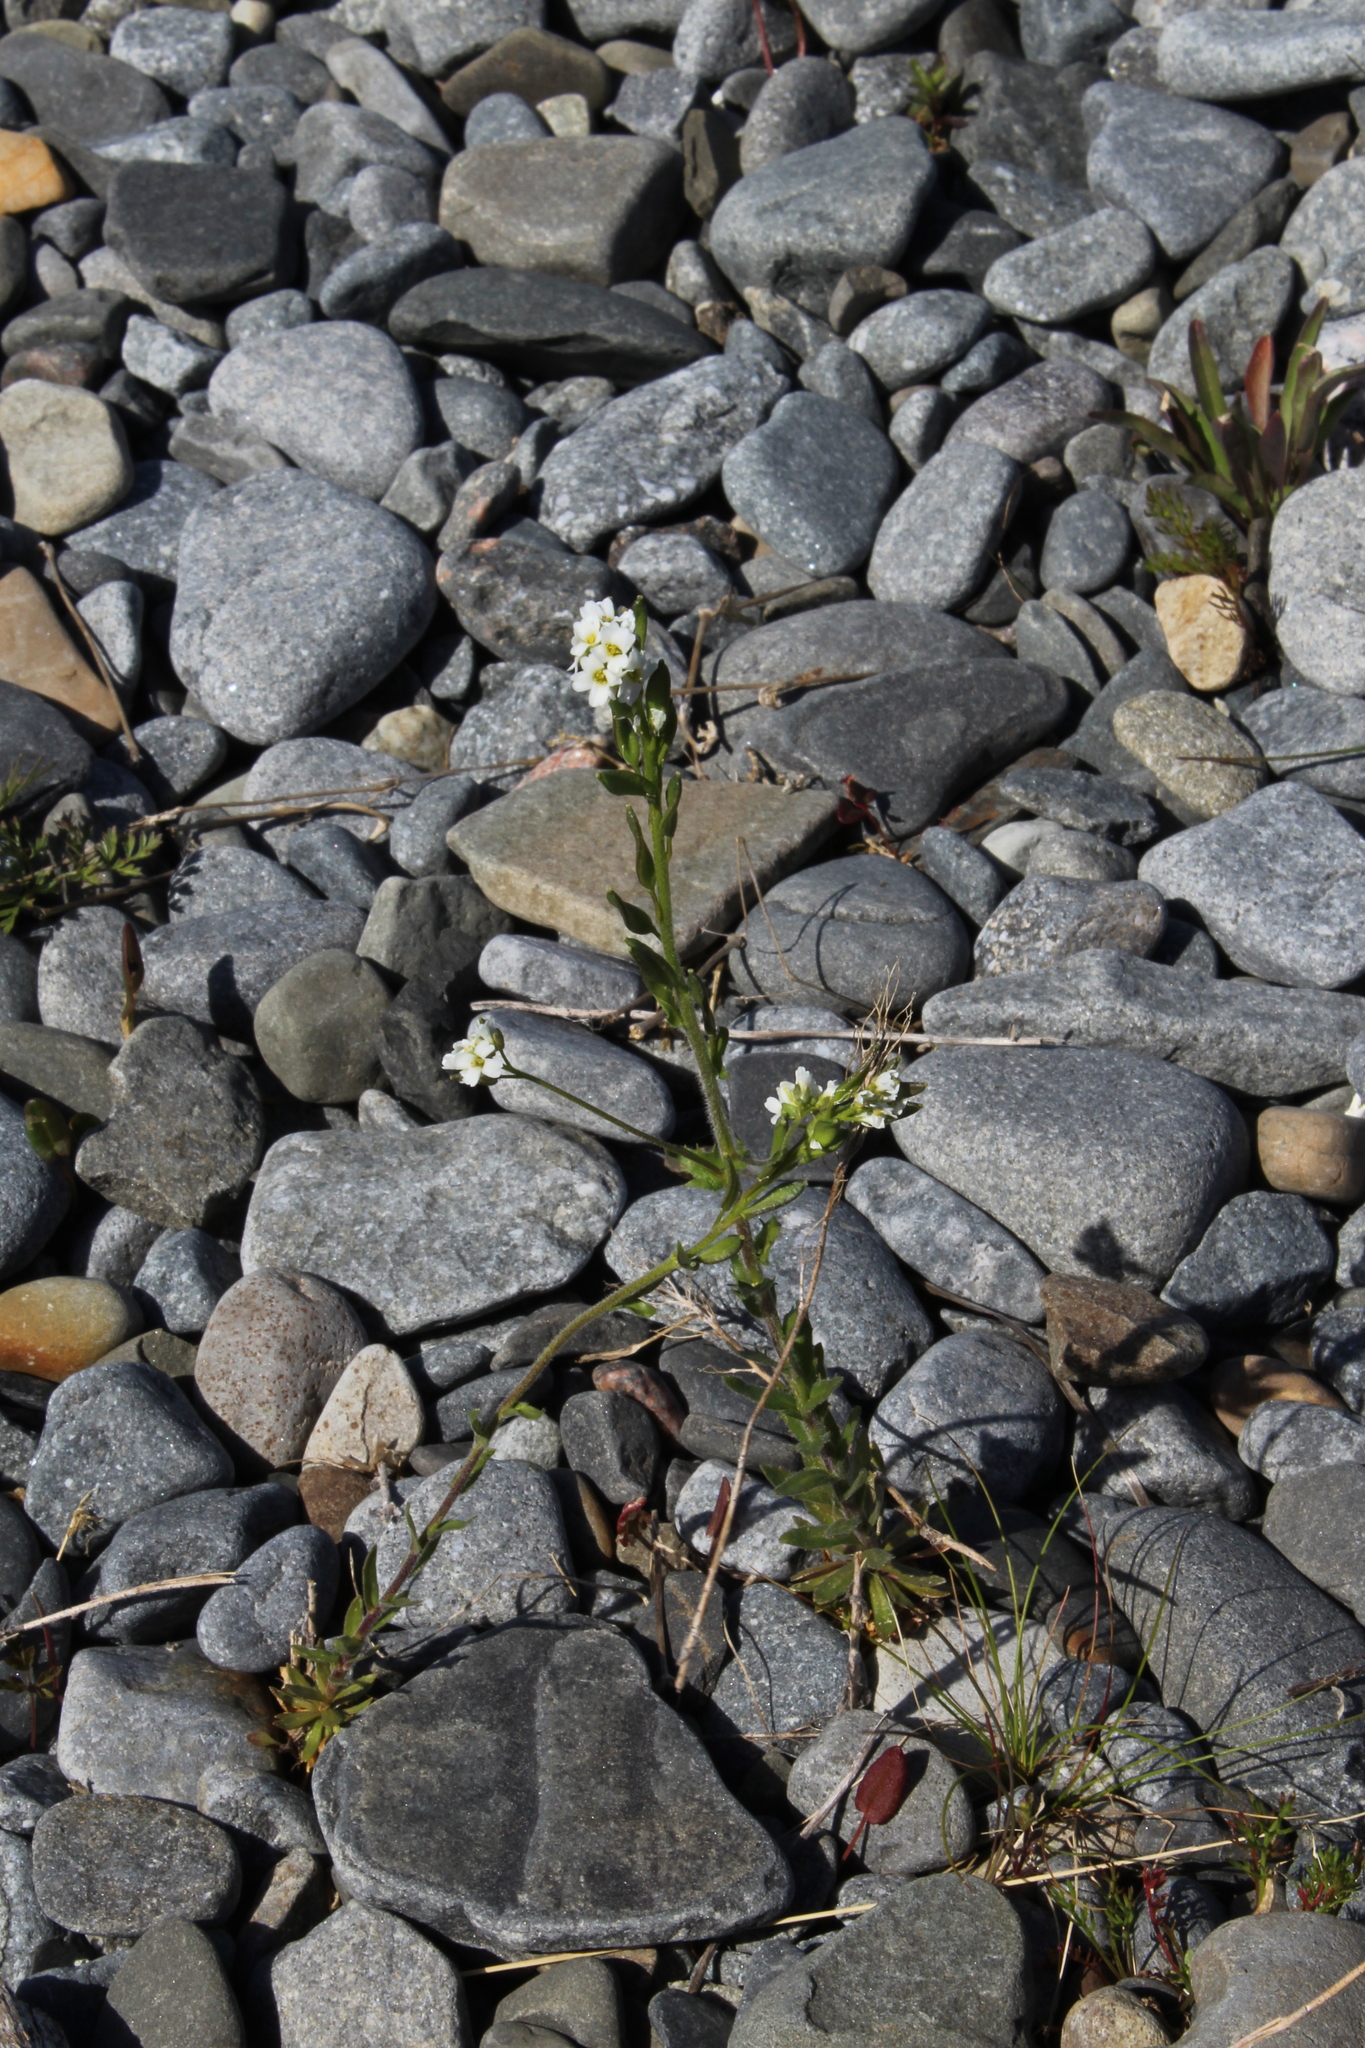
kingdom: Plantae
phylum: Tracheophyta
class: Magnoliopsida
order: Brassicales
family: Brassicaceae
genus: Draba
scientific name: Draba incana
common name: Hoary whitlow-grass
